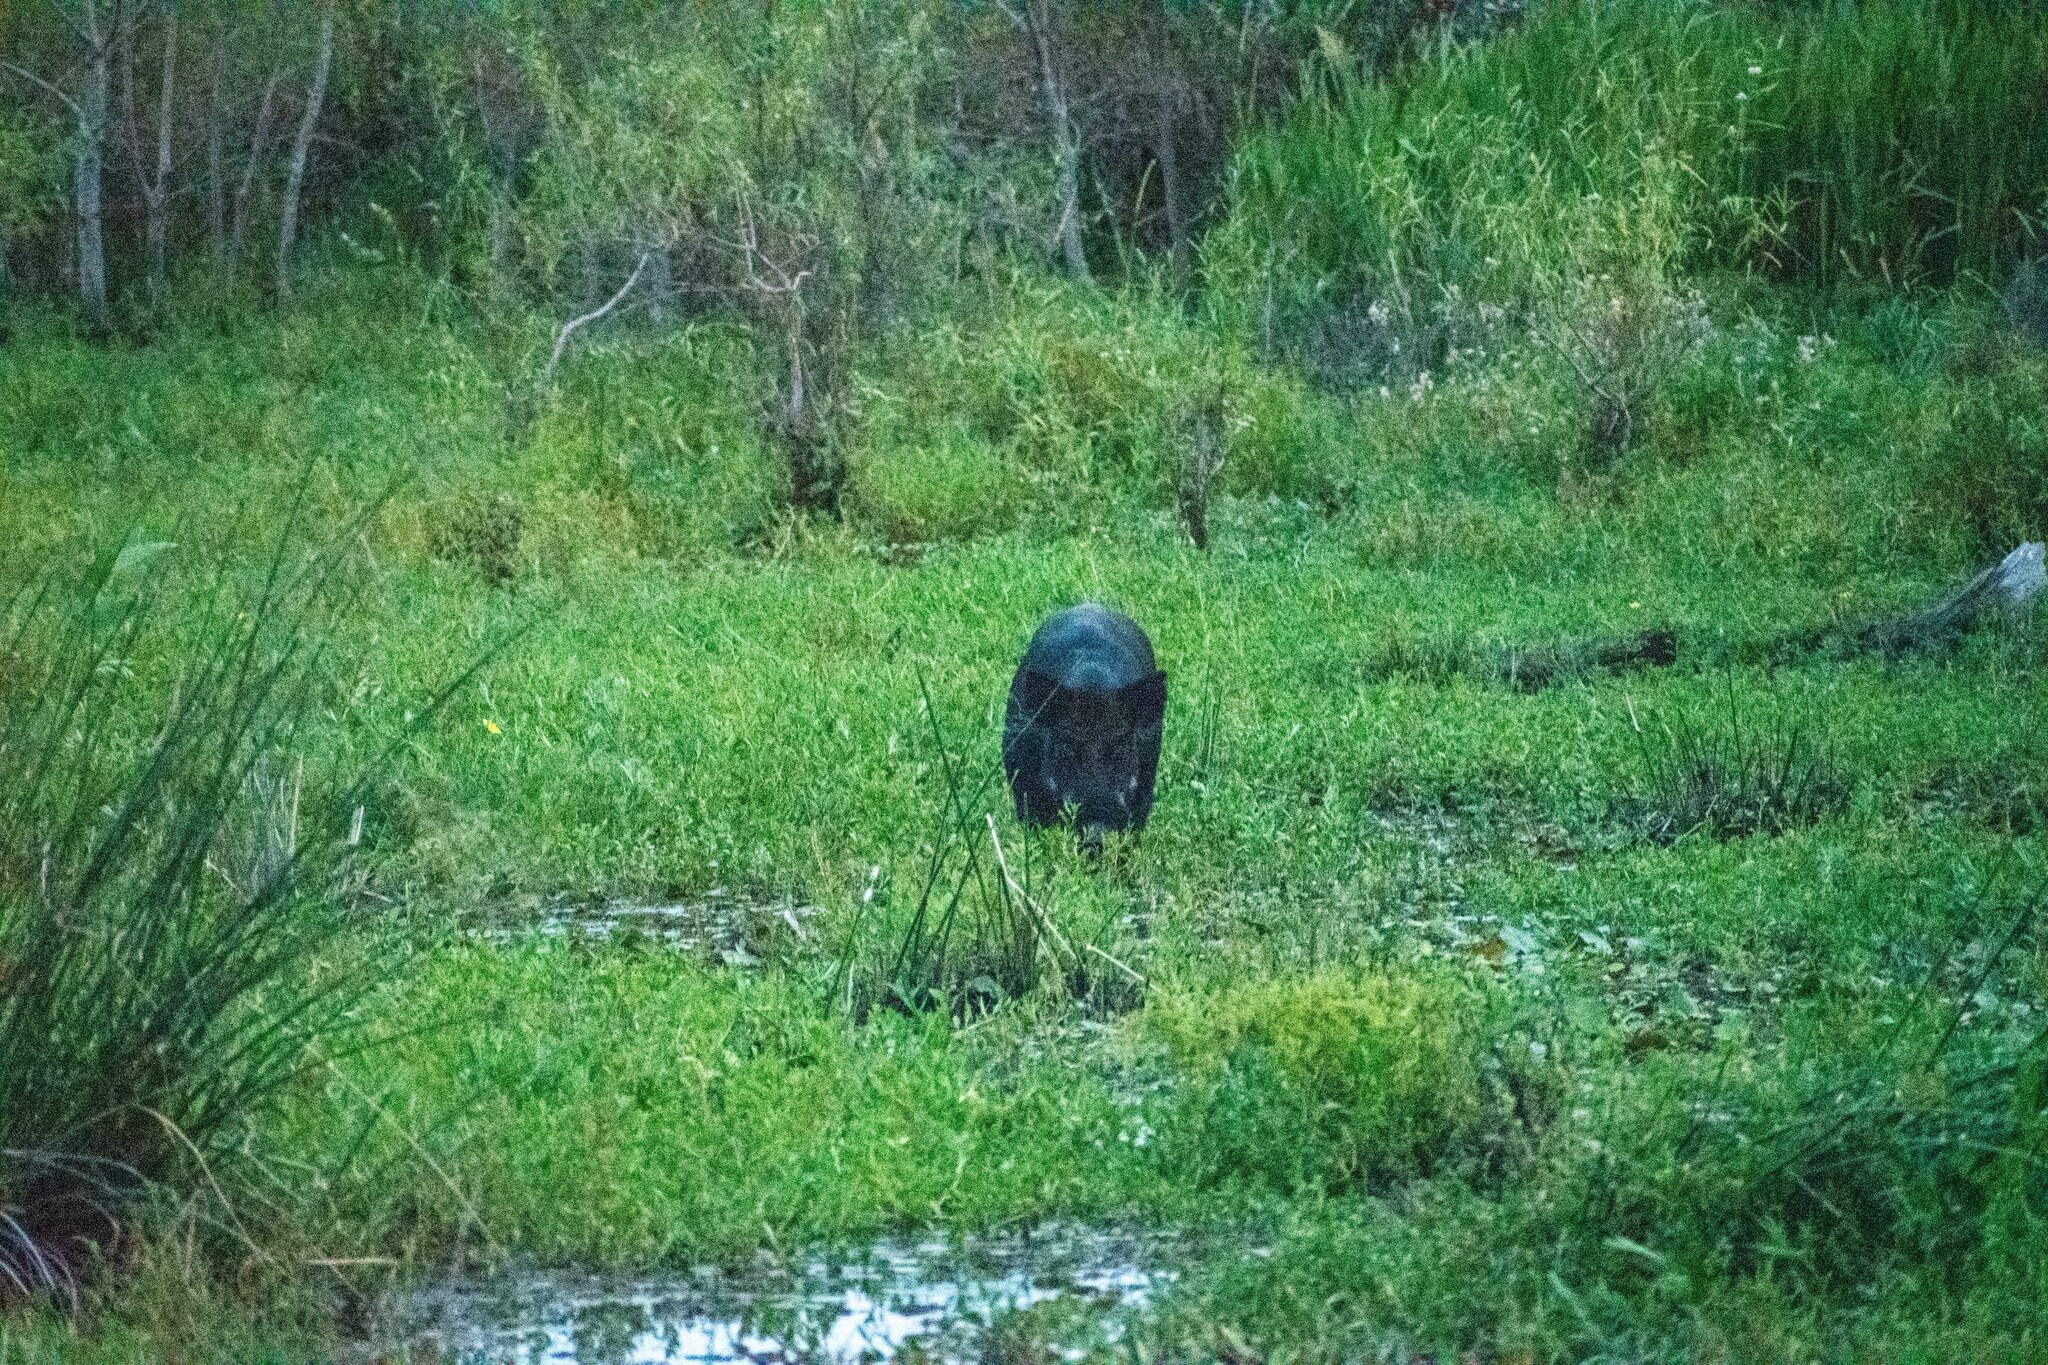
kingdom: Animalia
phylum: Chordata
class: Mammalia
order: Artiodactyla
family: Suidae
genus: Sus
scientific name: Sus scrofa
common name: Wild boar
